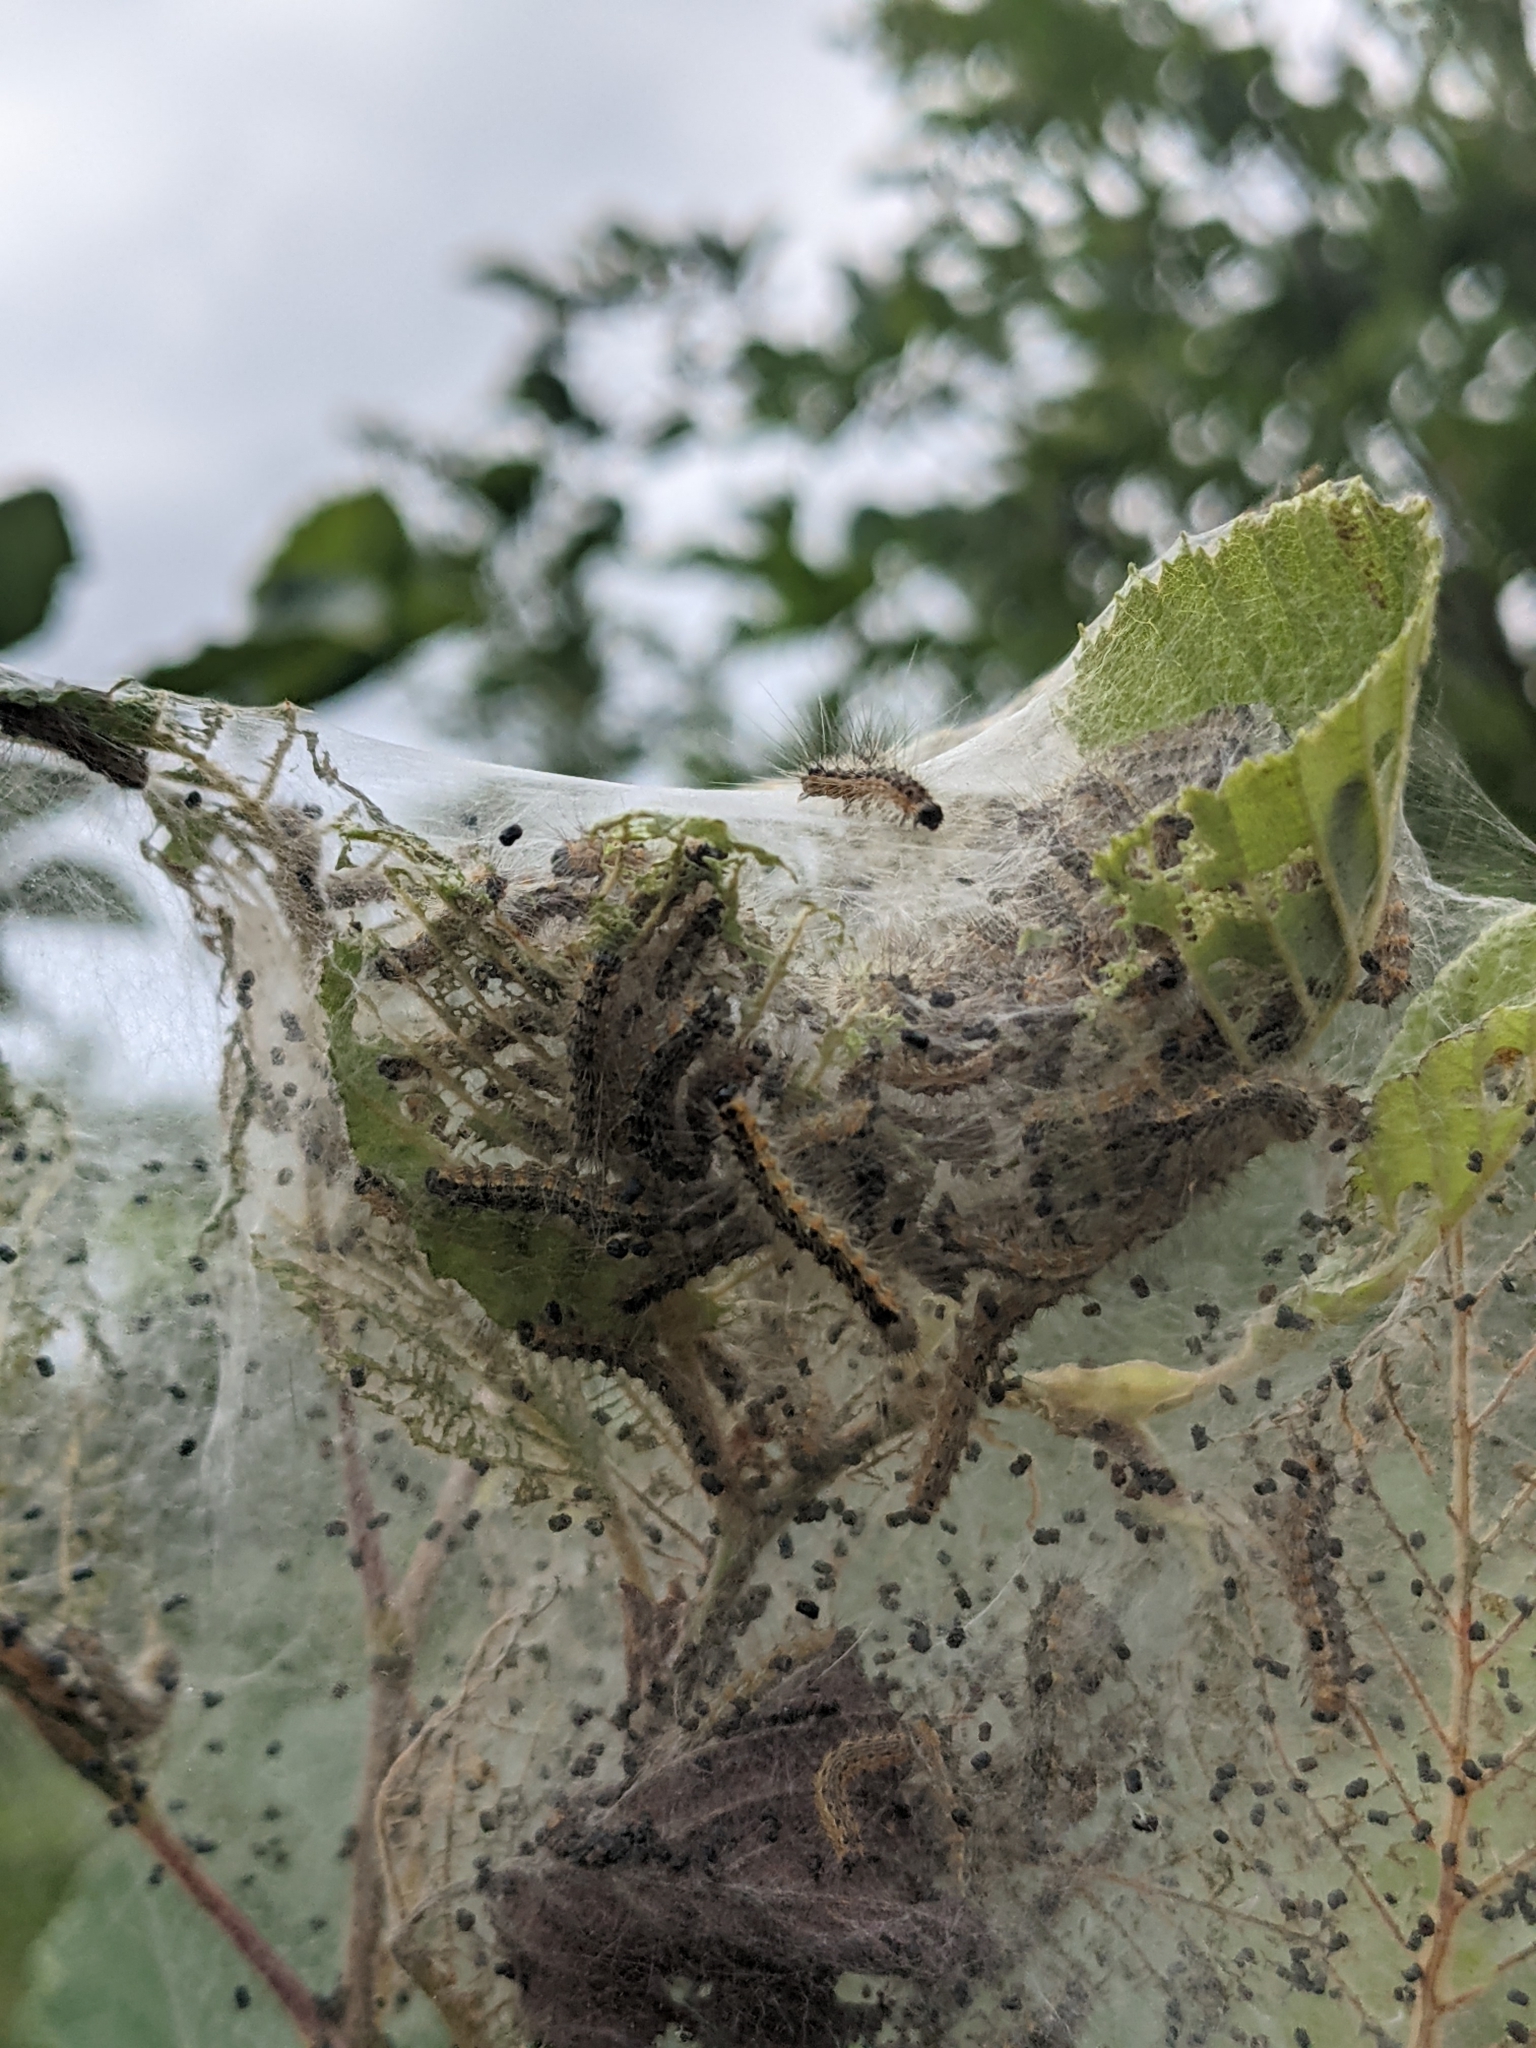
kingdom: Animalia
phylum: Arthropoda
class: Insecta
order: Lepidoptera
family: Erebidae
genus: Hyphantria
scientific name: Hyphantria cunea
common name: American white moth
